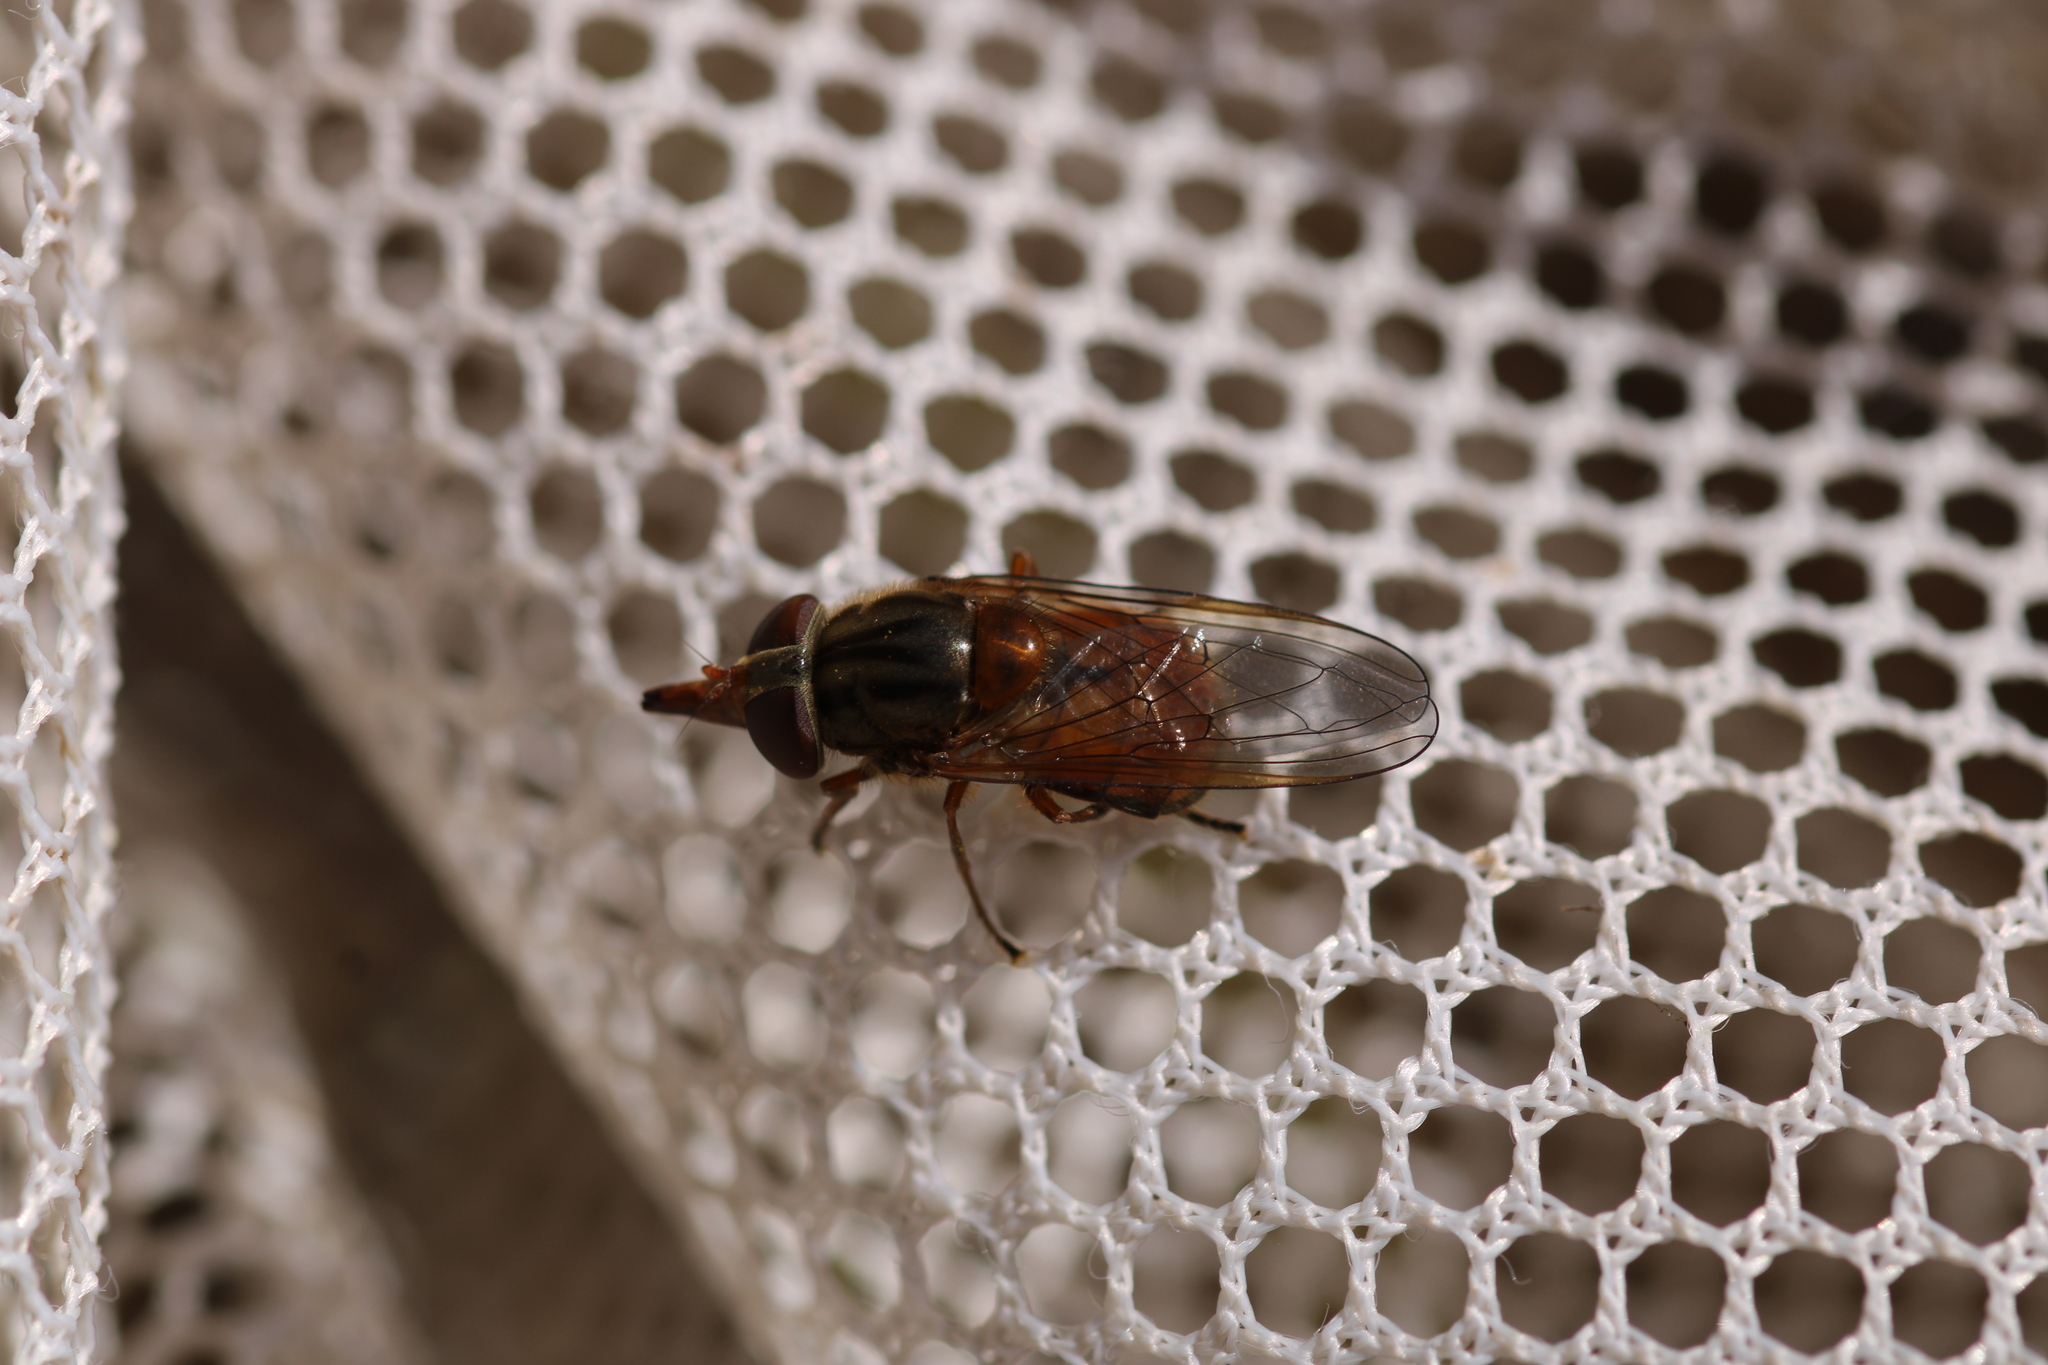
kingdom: Animalia
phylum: Arthropoda
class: Insecta
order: Diptera
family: Syrphidae
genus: Rhingia
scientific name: Rhingia campestris
